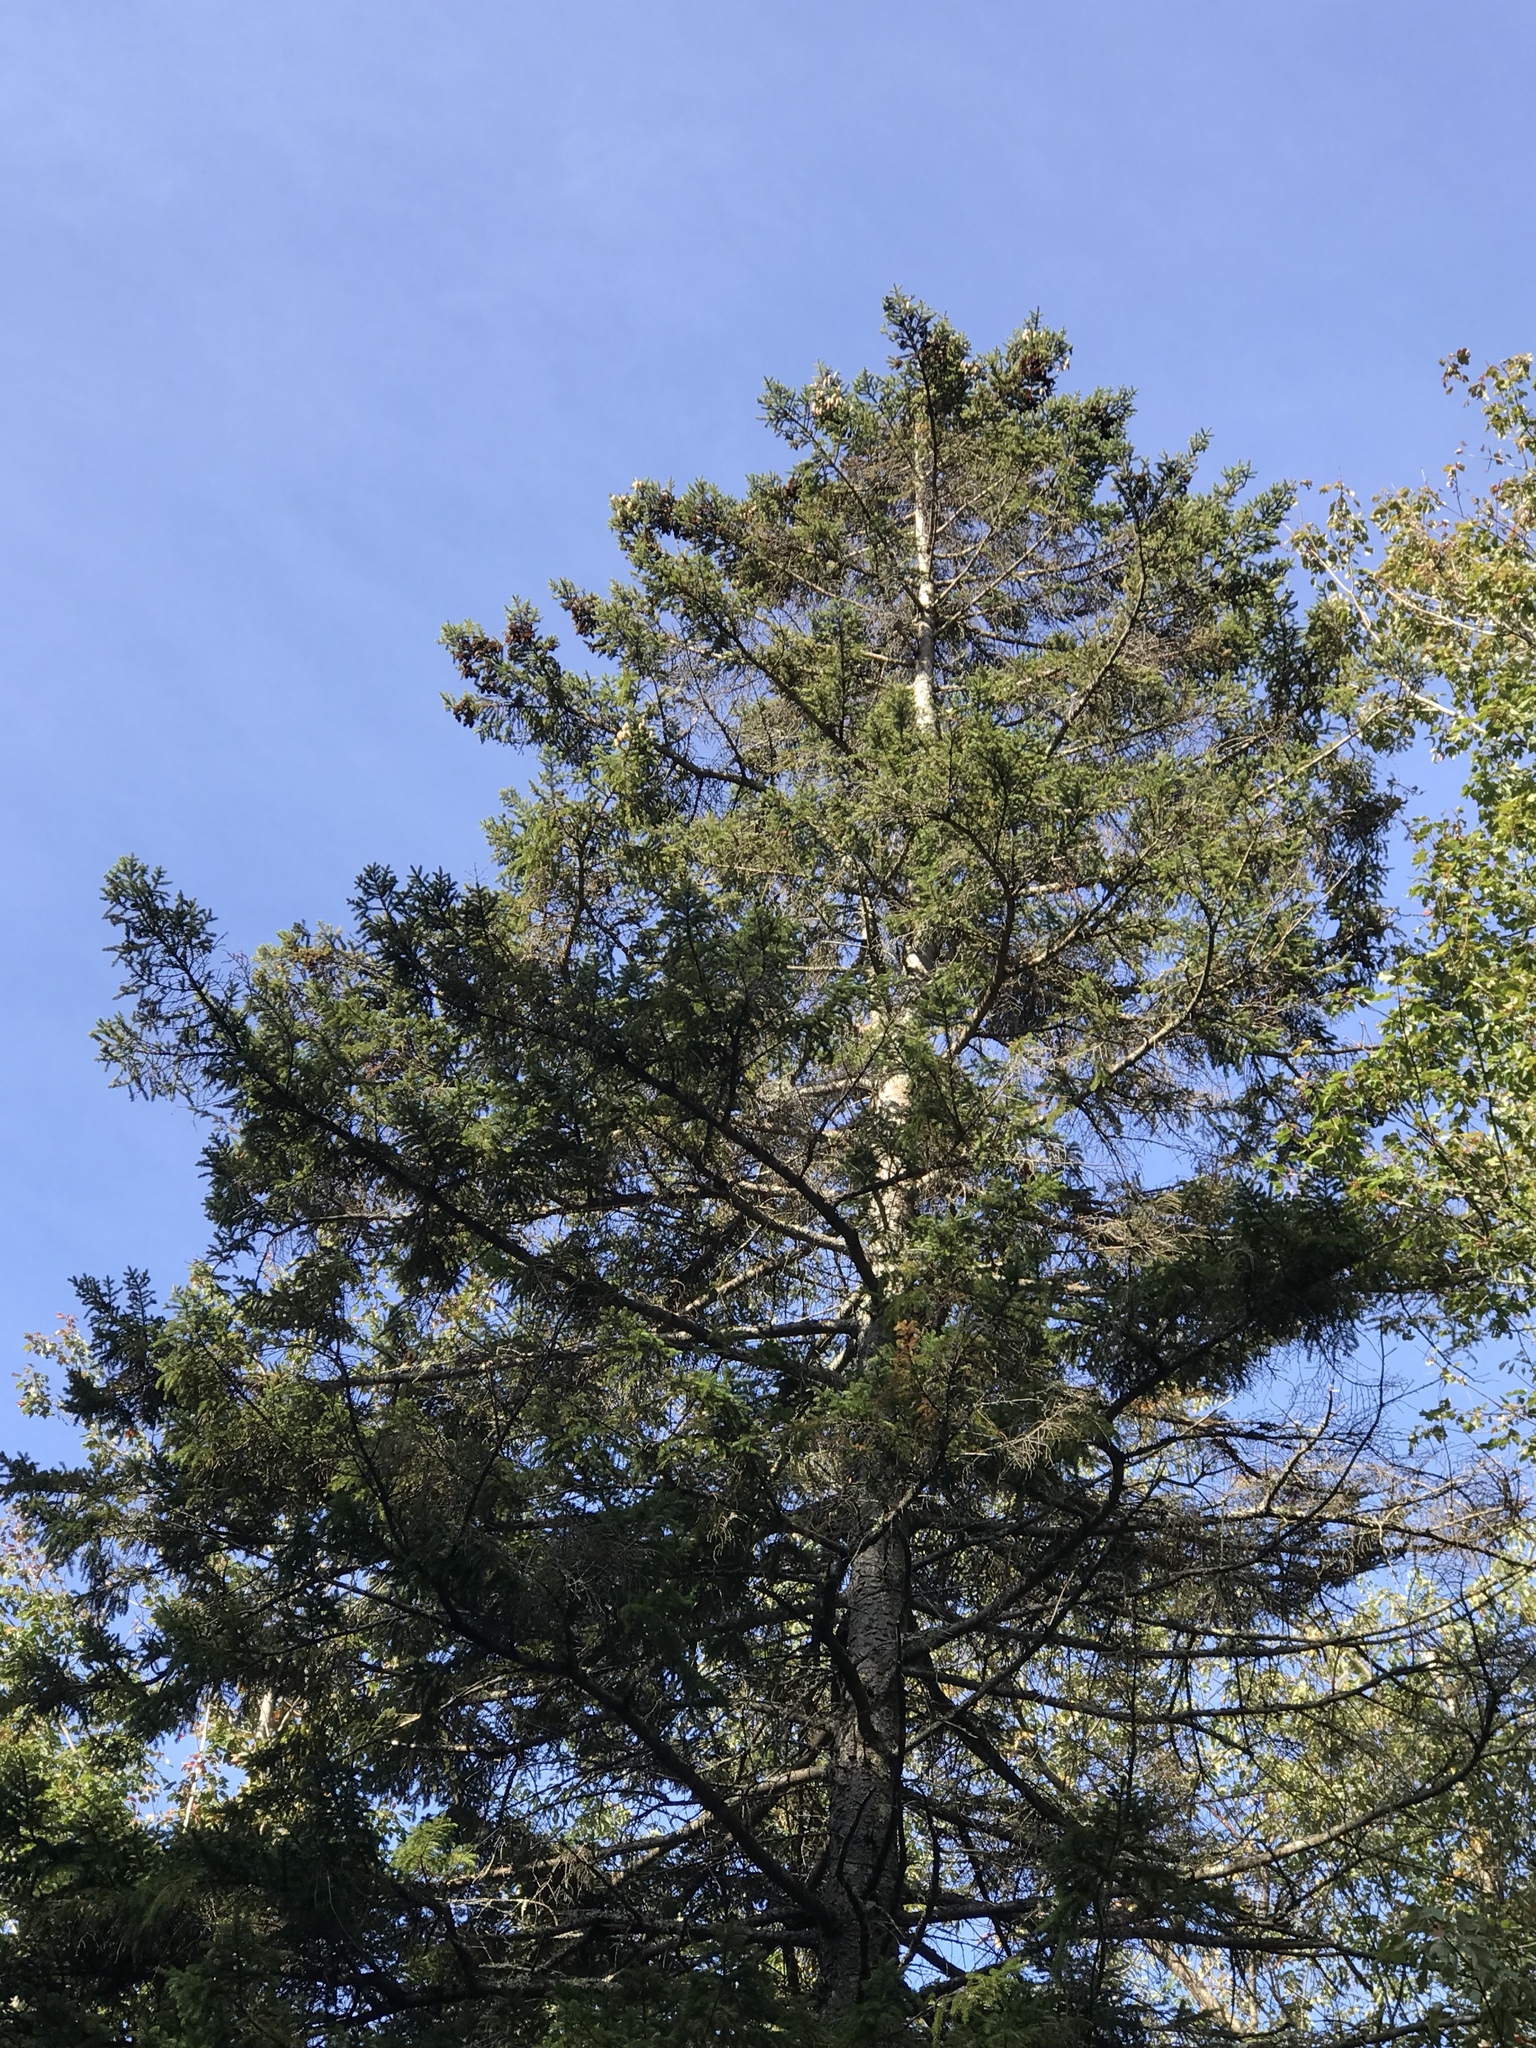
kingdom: Plantae
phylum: Tracheophyta
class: Pinopsida
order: Pinales
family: Pinaceae
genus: Picea
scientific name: Picea rubens
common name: Red spruce
